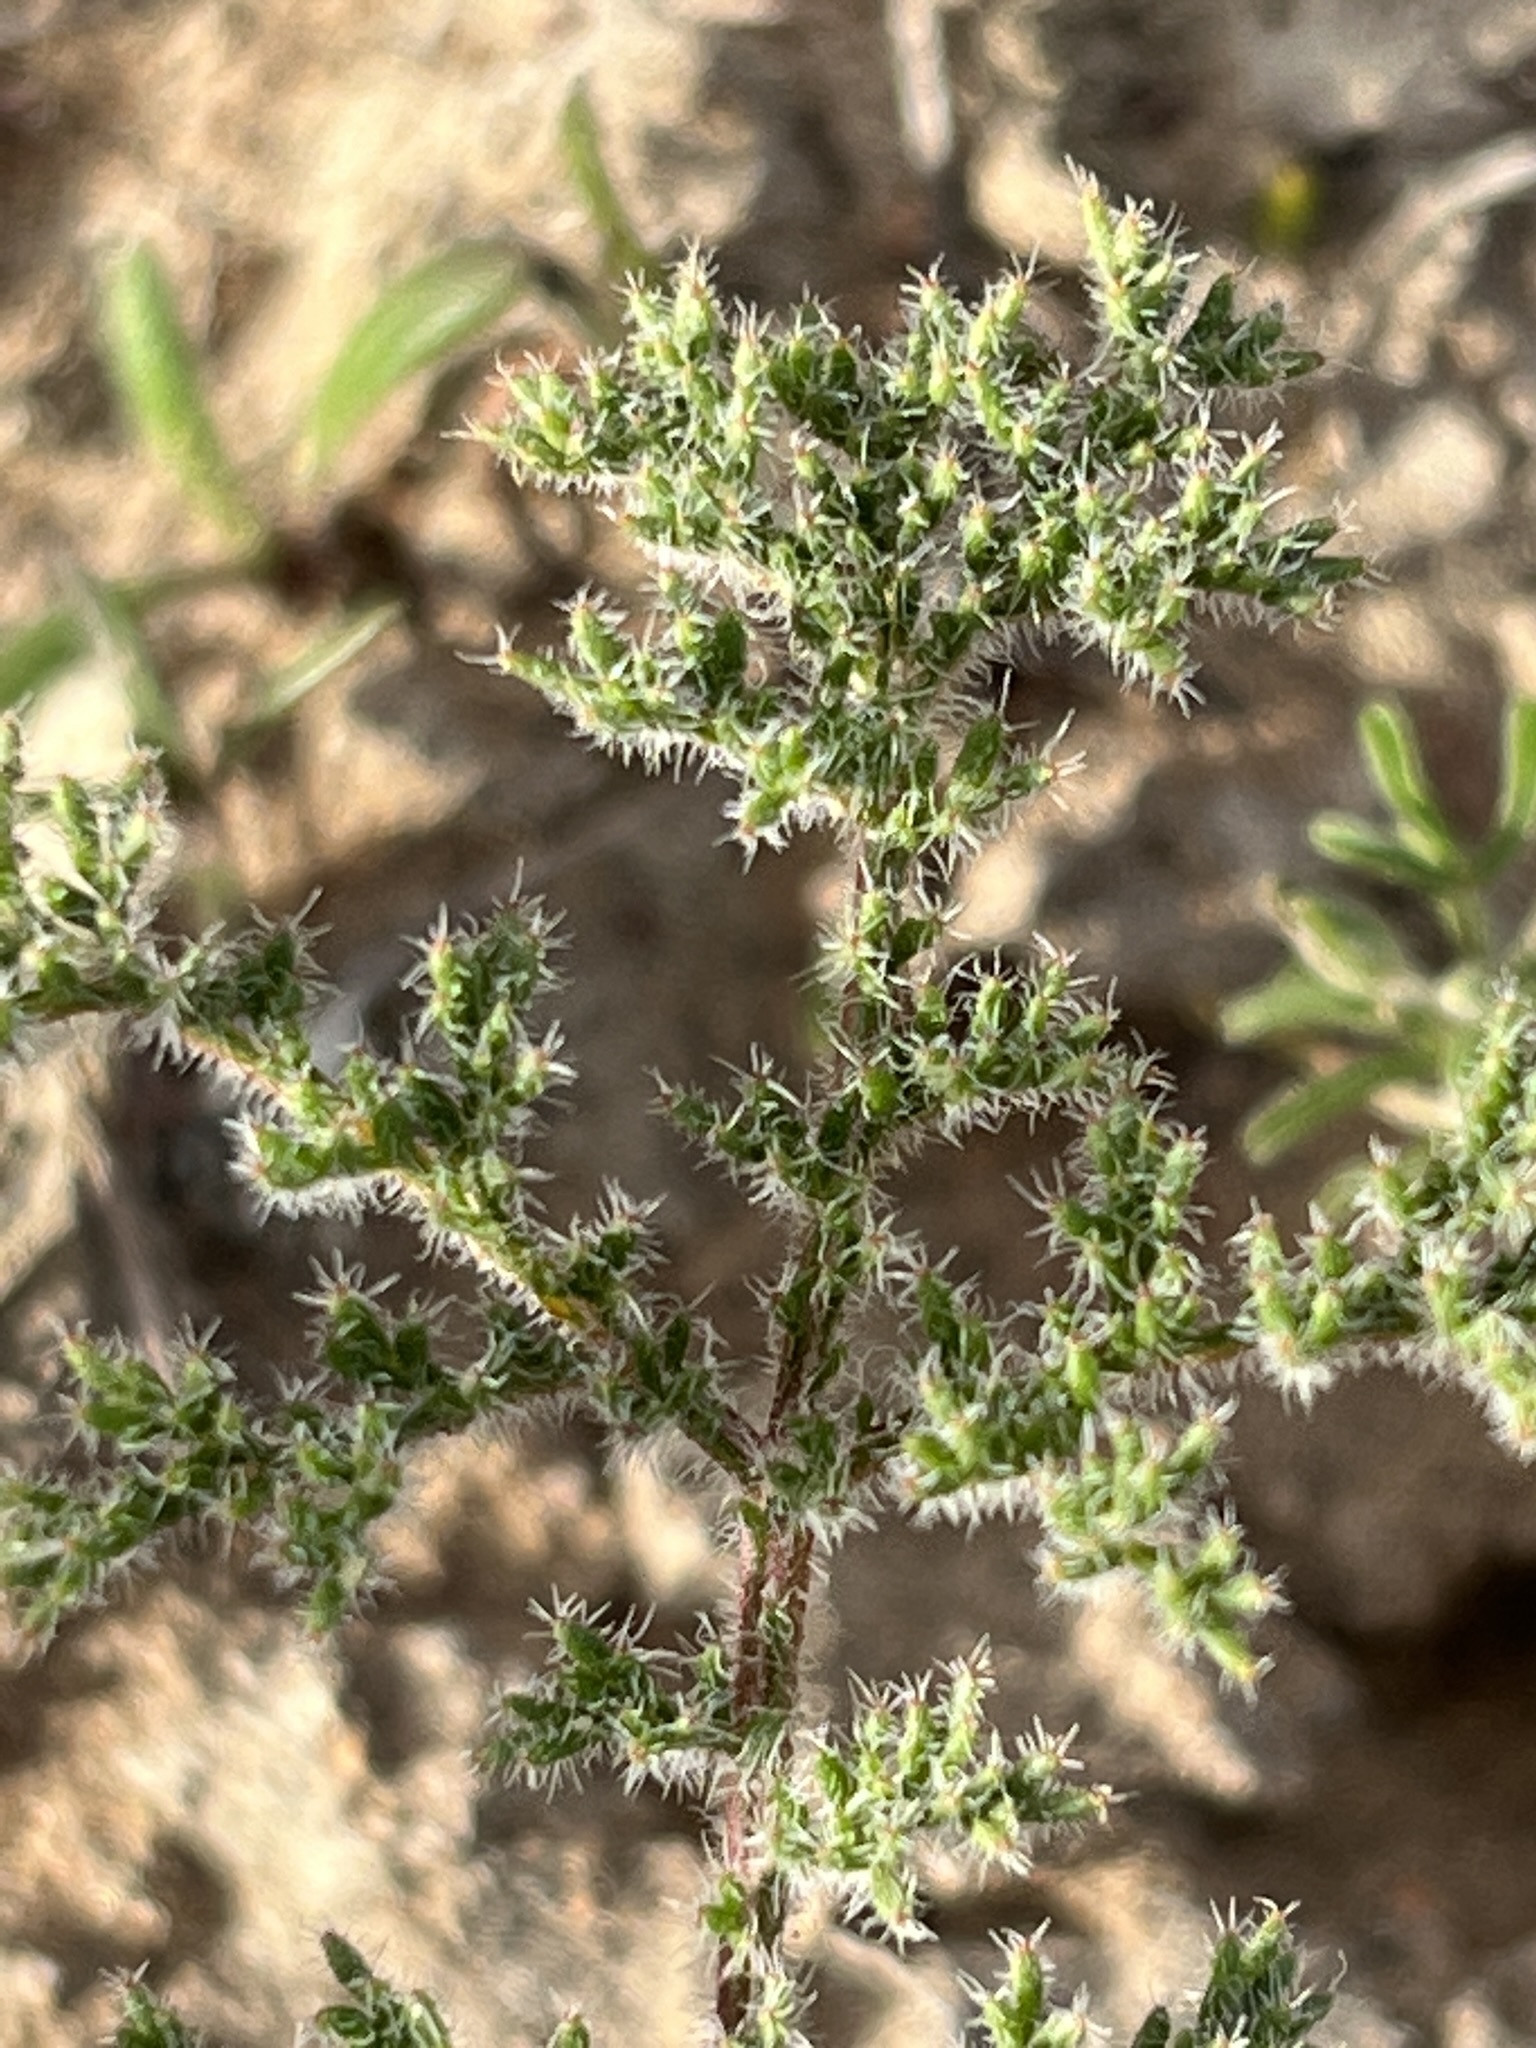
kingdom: Plantae
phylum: Tracheophyta
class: Magnoliopsida
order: Geraniales
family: Geraniaceae
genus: Pelargonium
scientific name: Pelargonium triste
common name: Night-scent pelargonium
